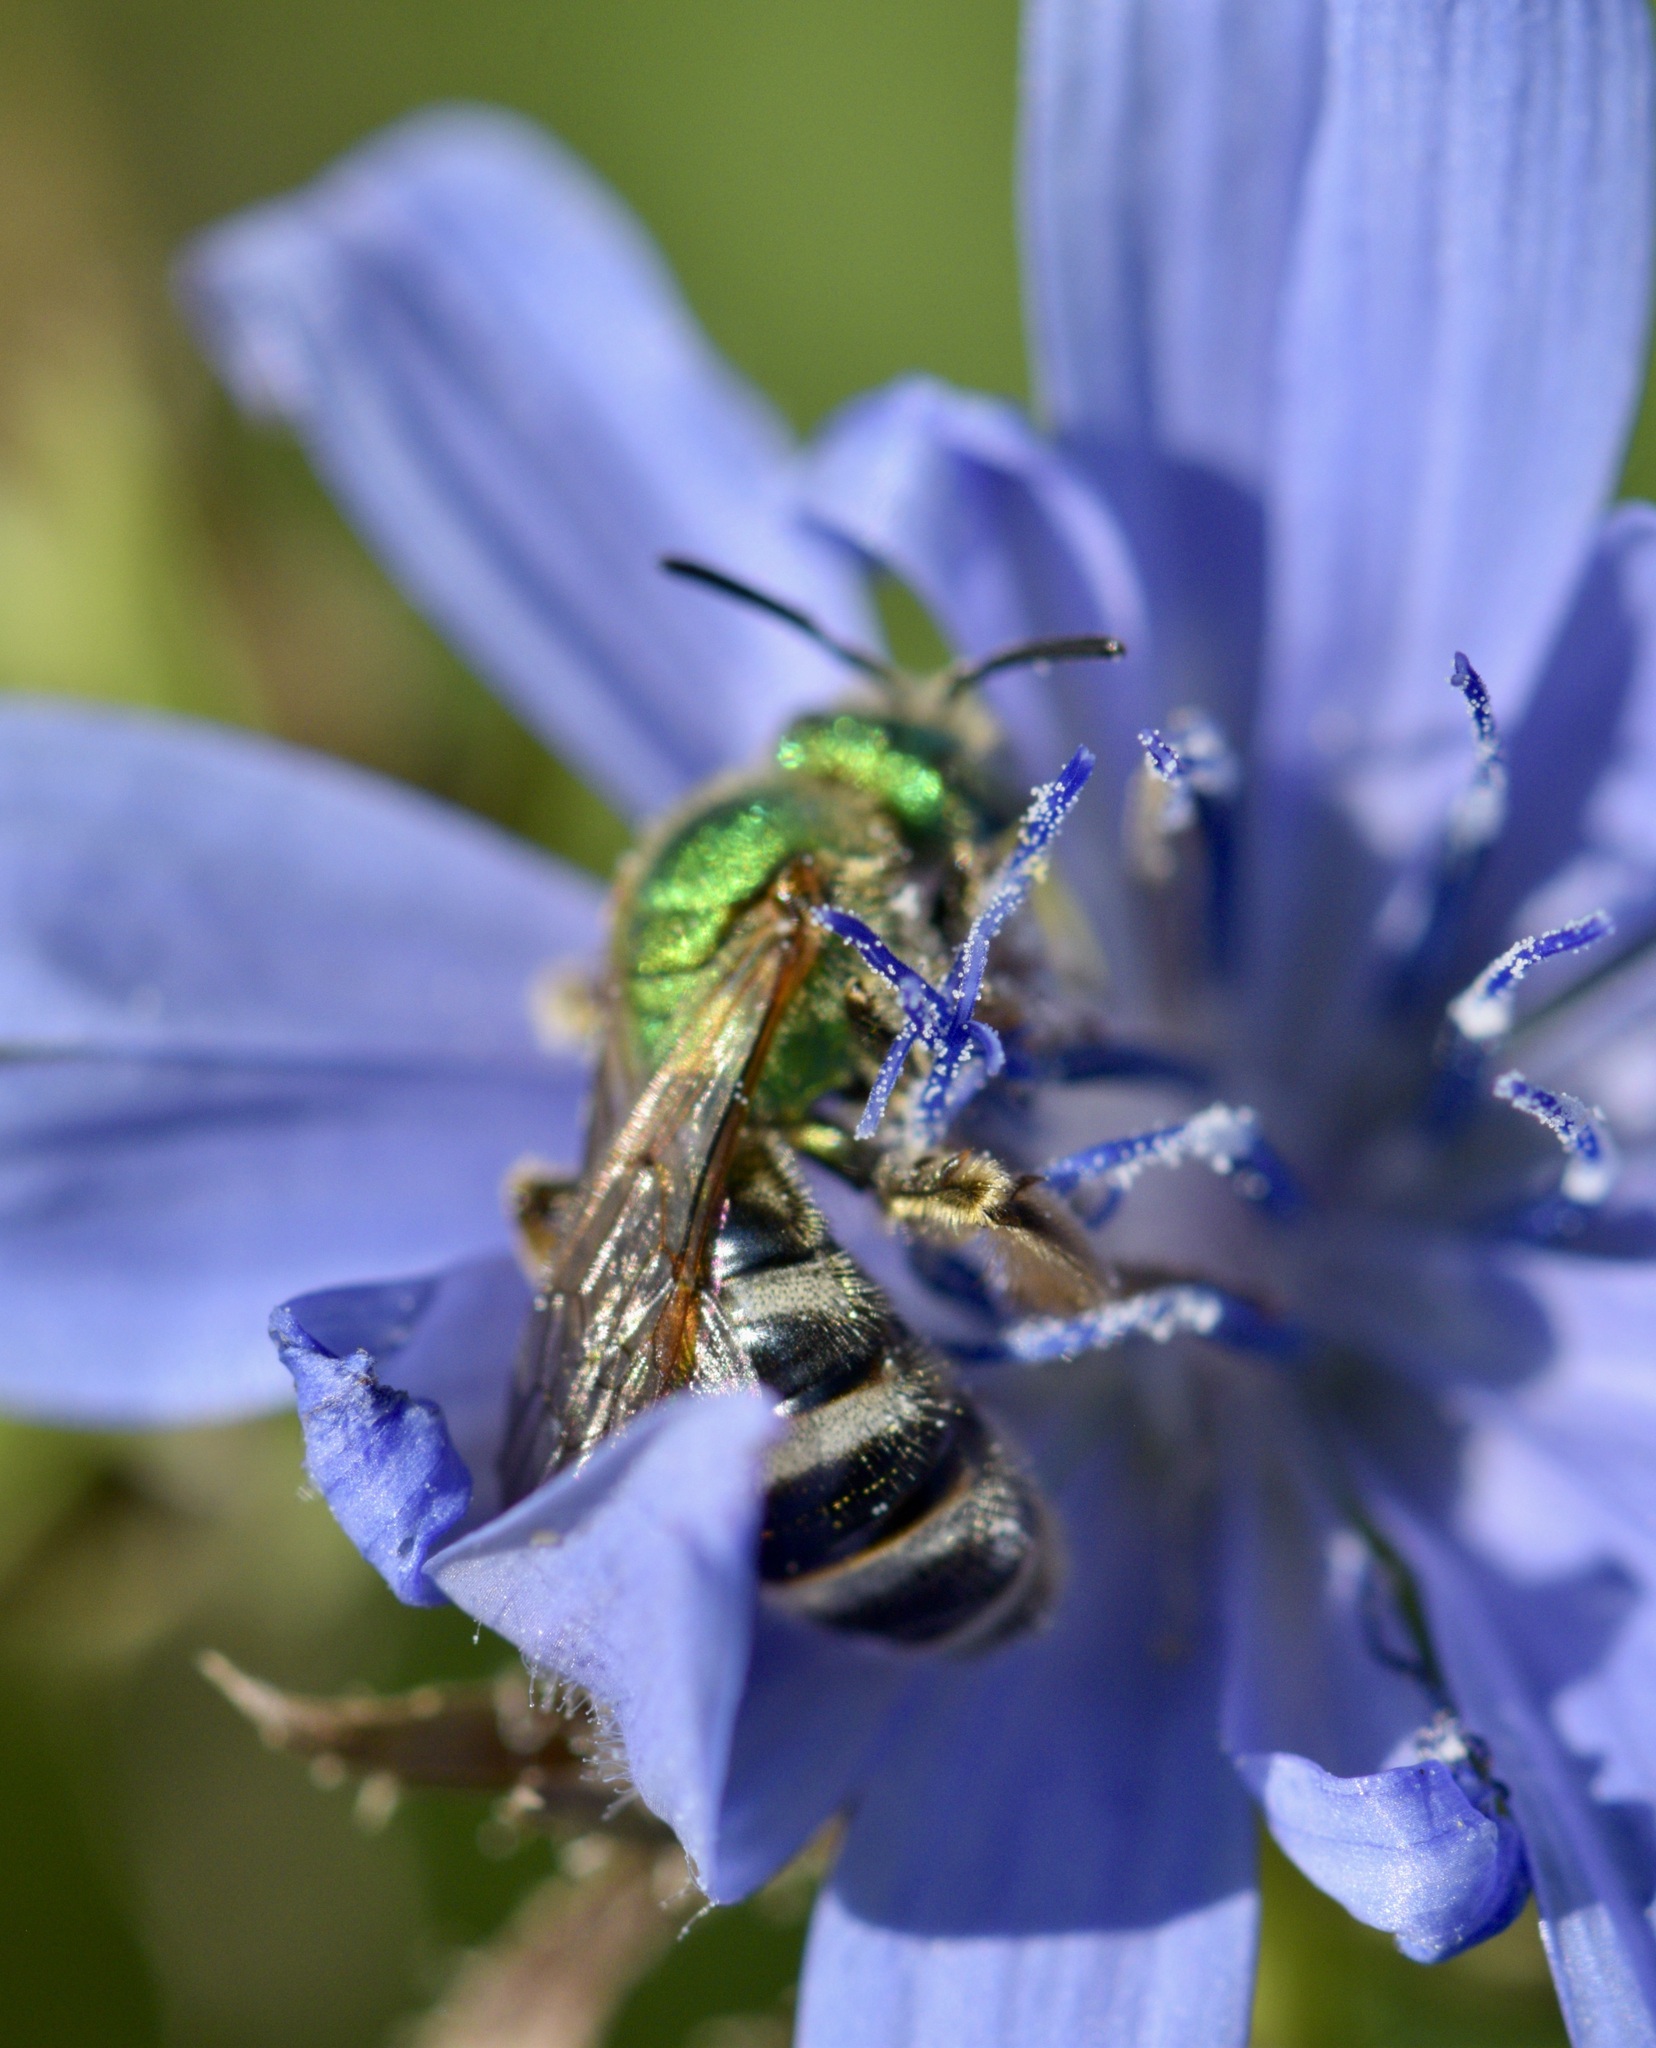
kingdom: Animalia
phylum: Arthropoda
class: Insecta
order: Hymenoptera
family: Halictidae
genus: Agapostemon
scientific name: Agapostemon virescens
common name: Bicolored striped sweat bee
